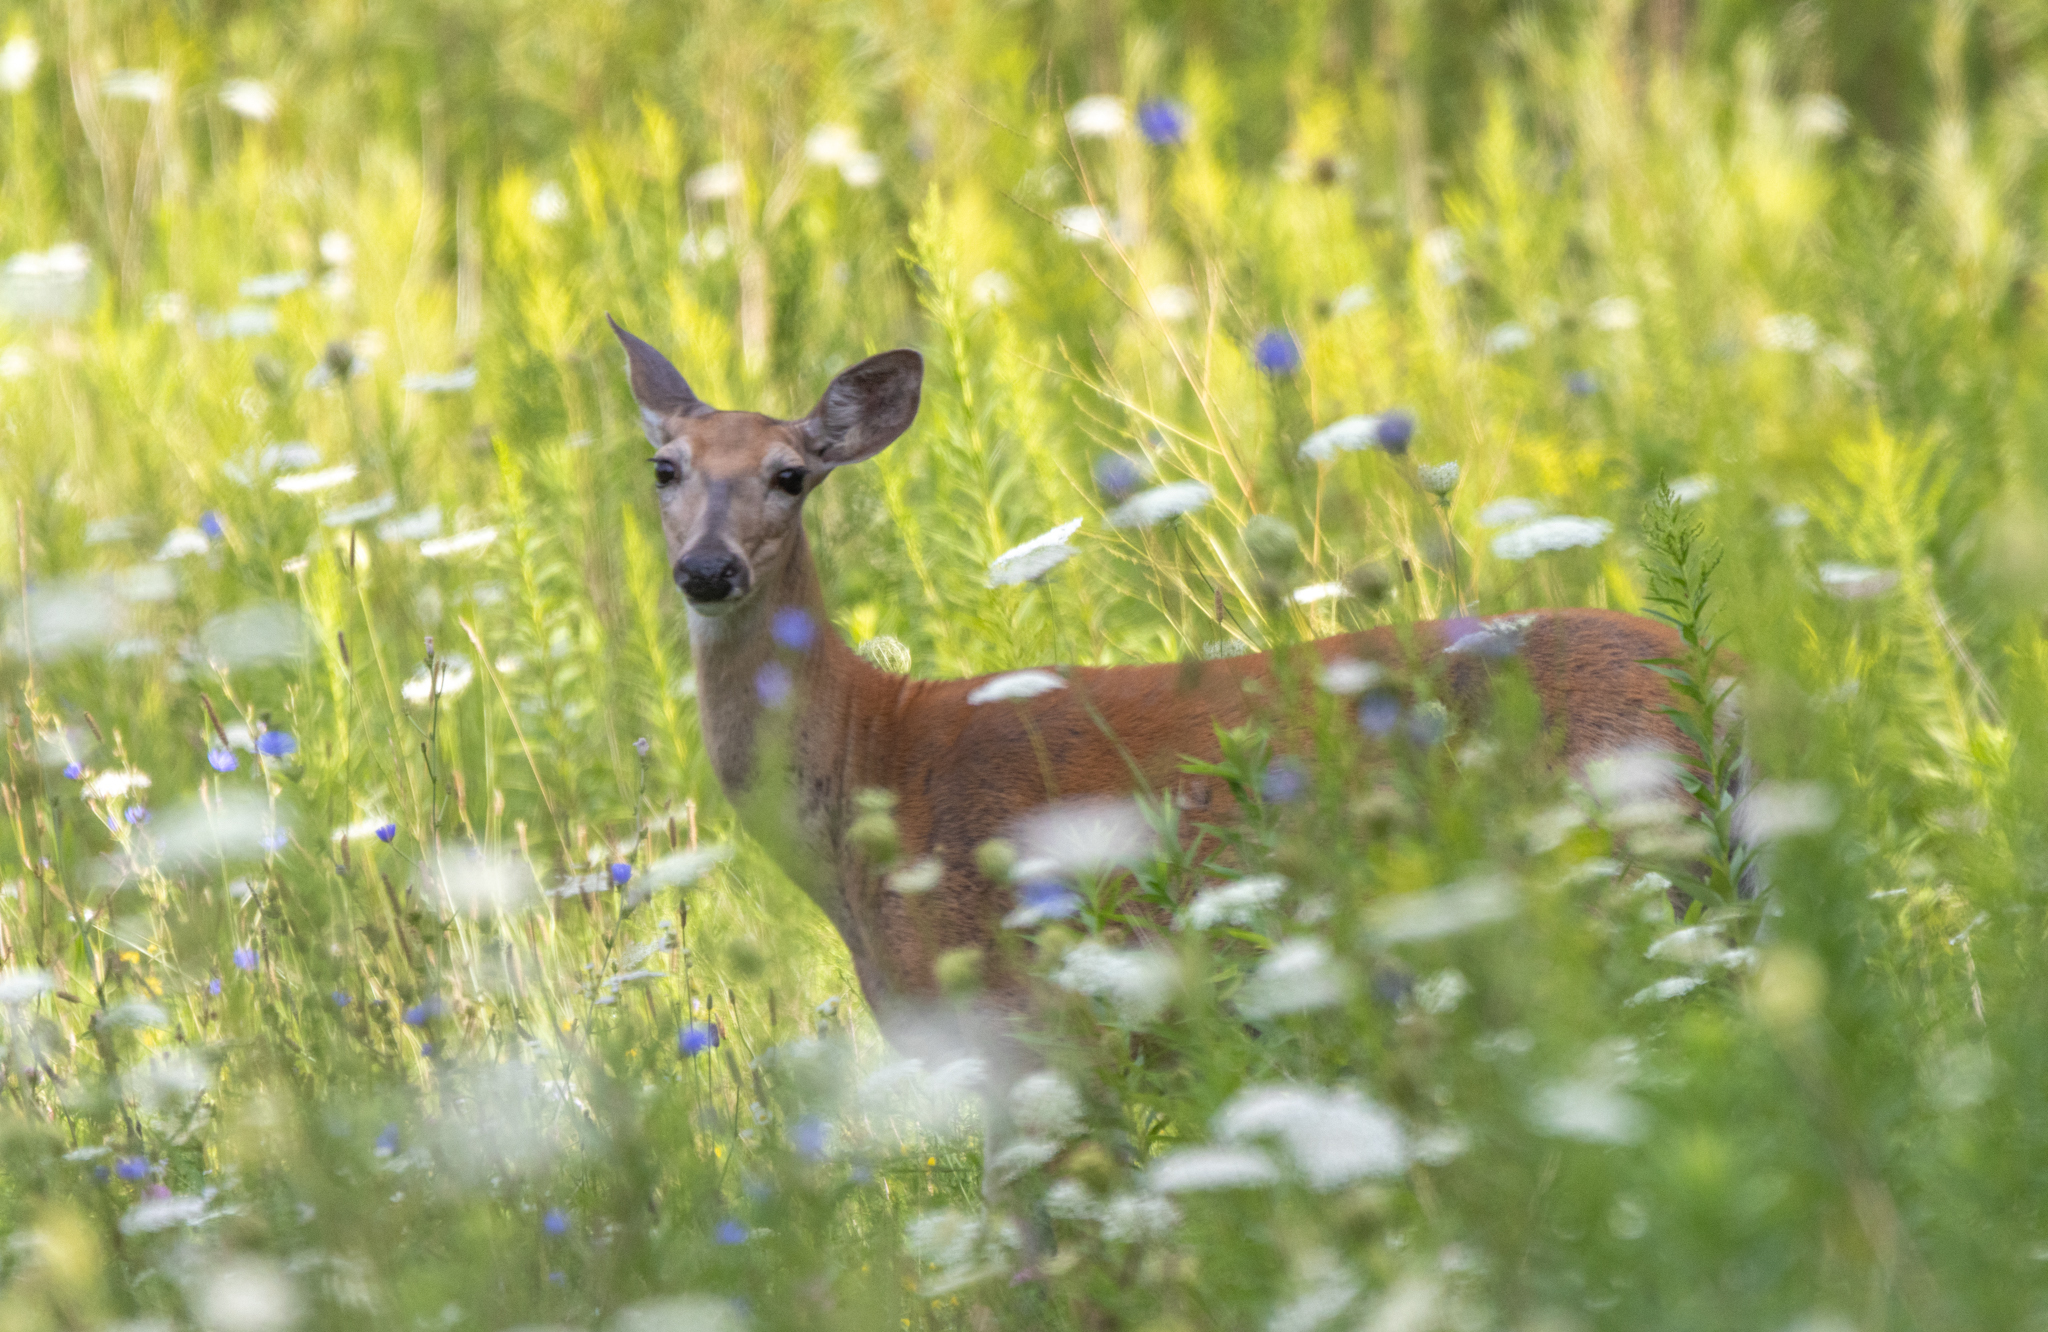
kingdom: Animalia
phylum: Chordata
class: Mammalia
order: Artiodactyla
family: Cervidae
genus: Odocoileus
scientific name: Odocoileus virginianus
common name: White-tailed deer
